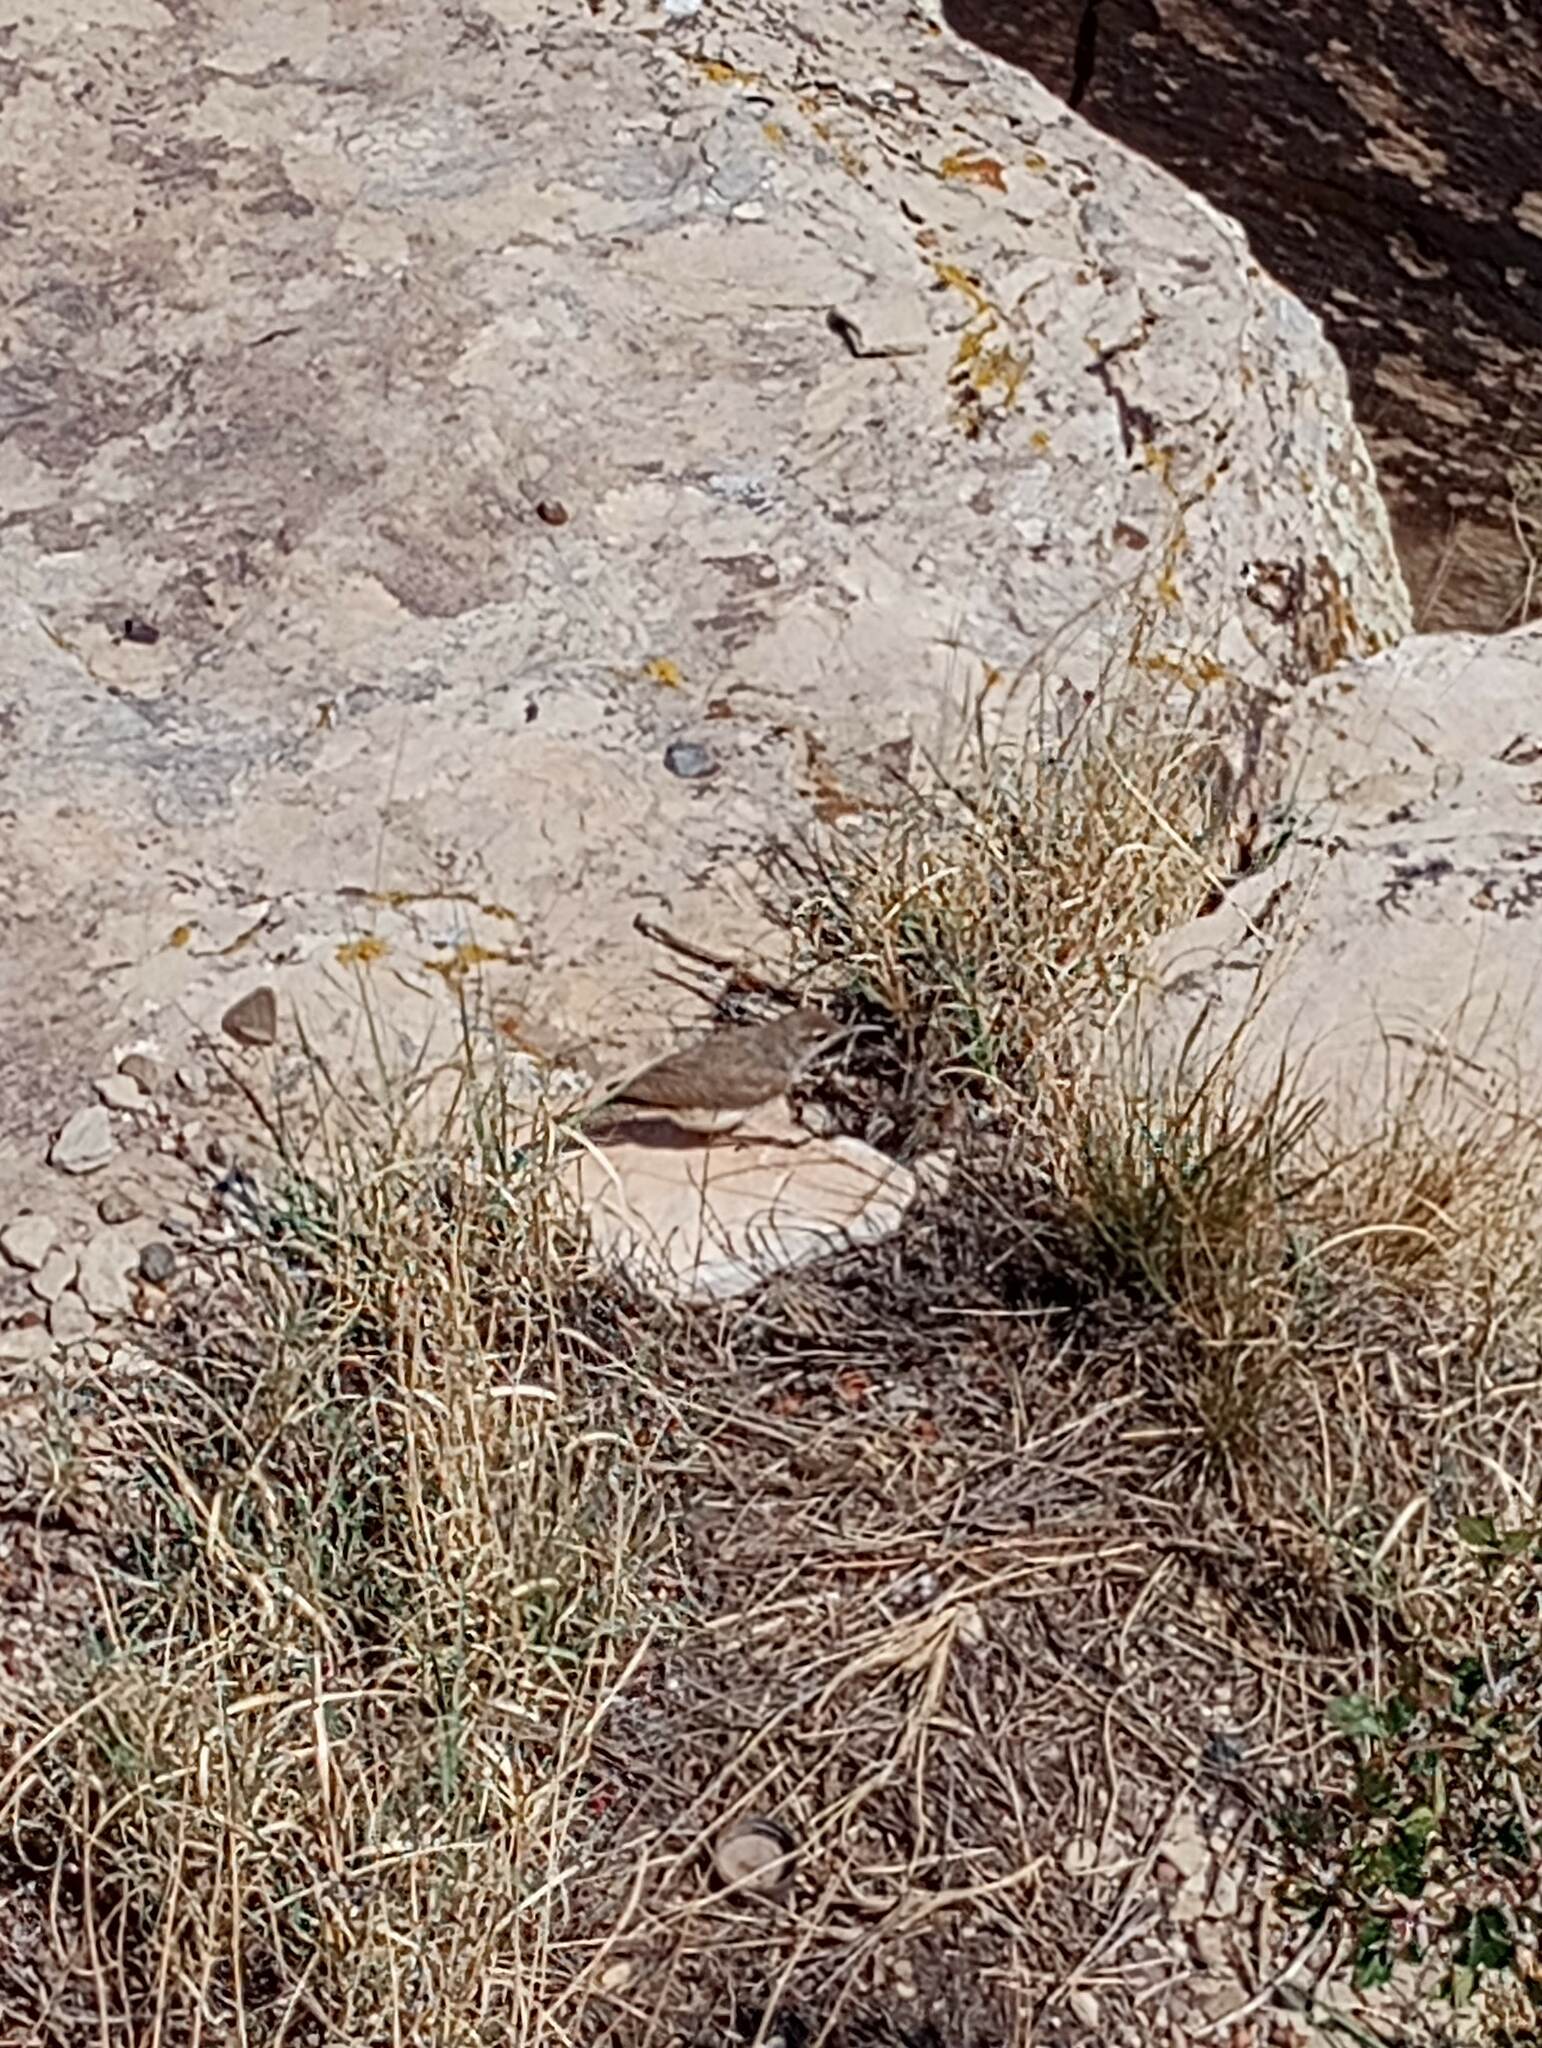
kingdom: Animalia
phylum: Chordata
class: Aves
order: Passeriformes
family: Troglodytidae
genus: Salpinctes
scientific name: Salpinctes obsoletus
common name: Rock wren
